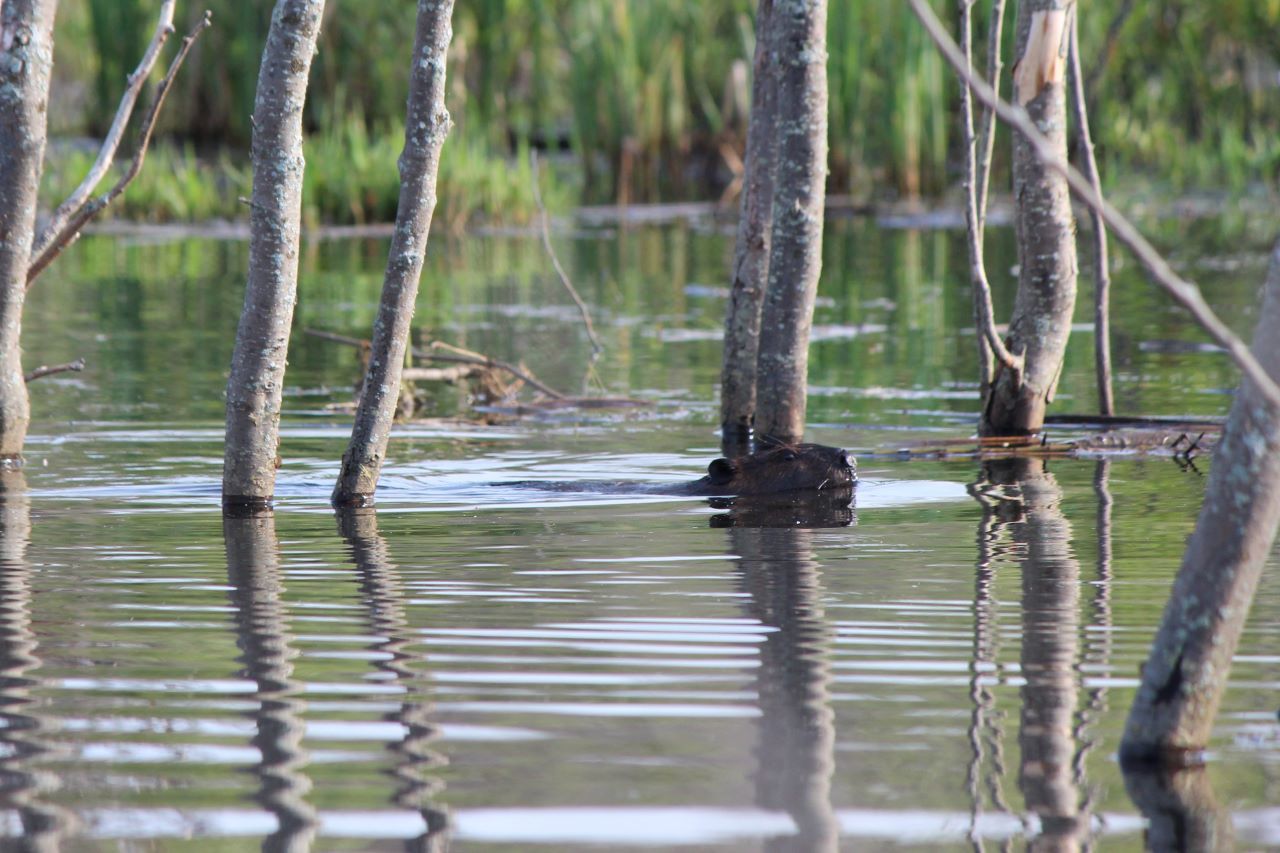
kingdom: Animalia
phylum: Chordata
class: Mammalia
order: Rodentia
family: Castoridae
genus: Castor
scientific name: Castor canadensis
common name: American beaver
